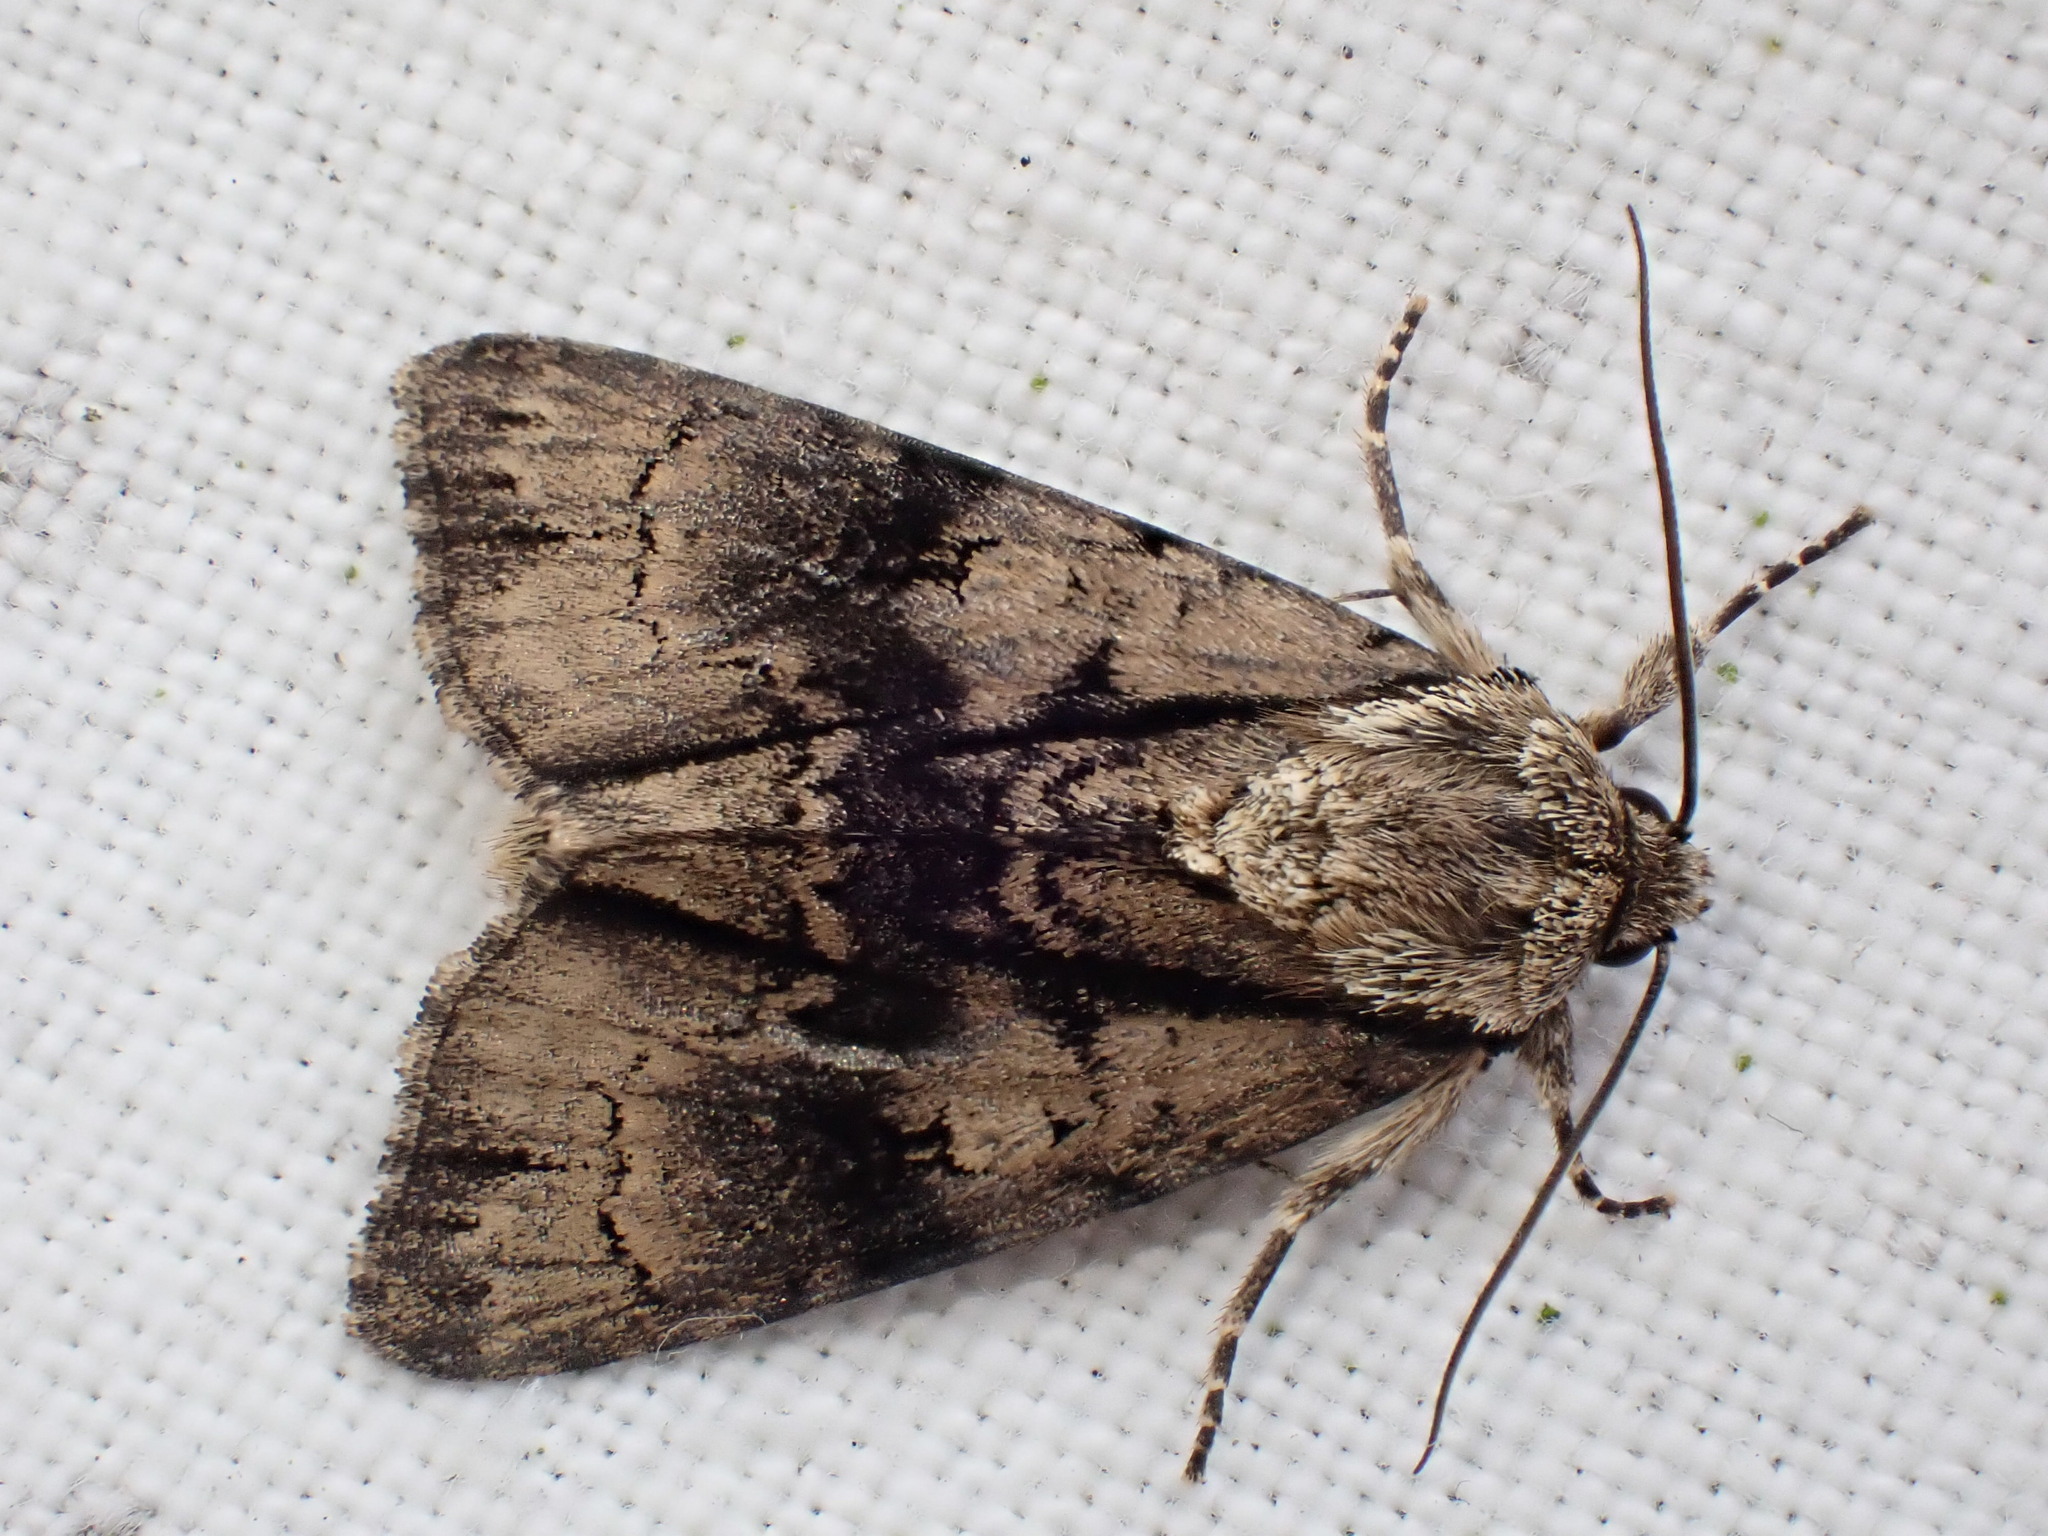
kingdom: Animalia
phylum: Arthropoda
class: Insecta
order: Lepidoptera
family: Noctuidae
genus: Acronicta
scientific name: Acronicta alni
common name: Alder moth
